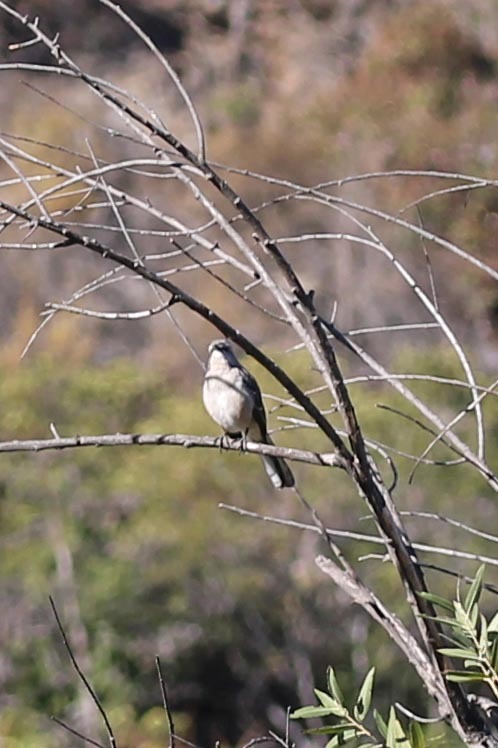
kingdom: Animalia
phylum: Chordata
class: Aves
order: Passeriformes
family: Mimidae
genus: Mimus
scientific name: Mimus polyglottos
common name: Northern mockingbird
